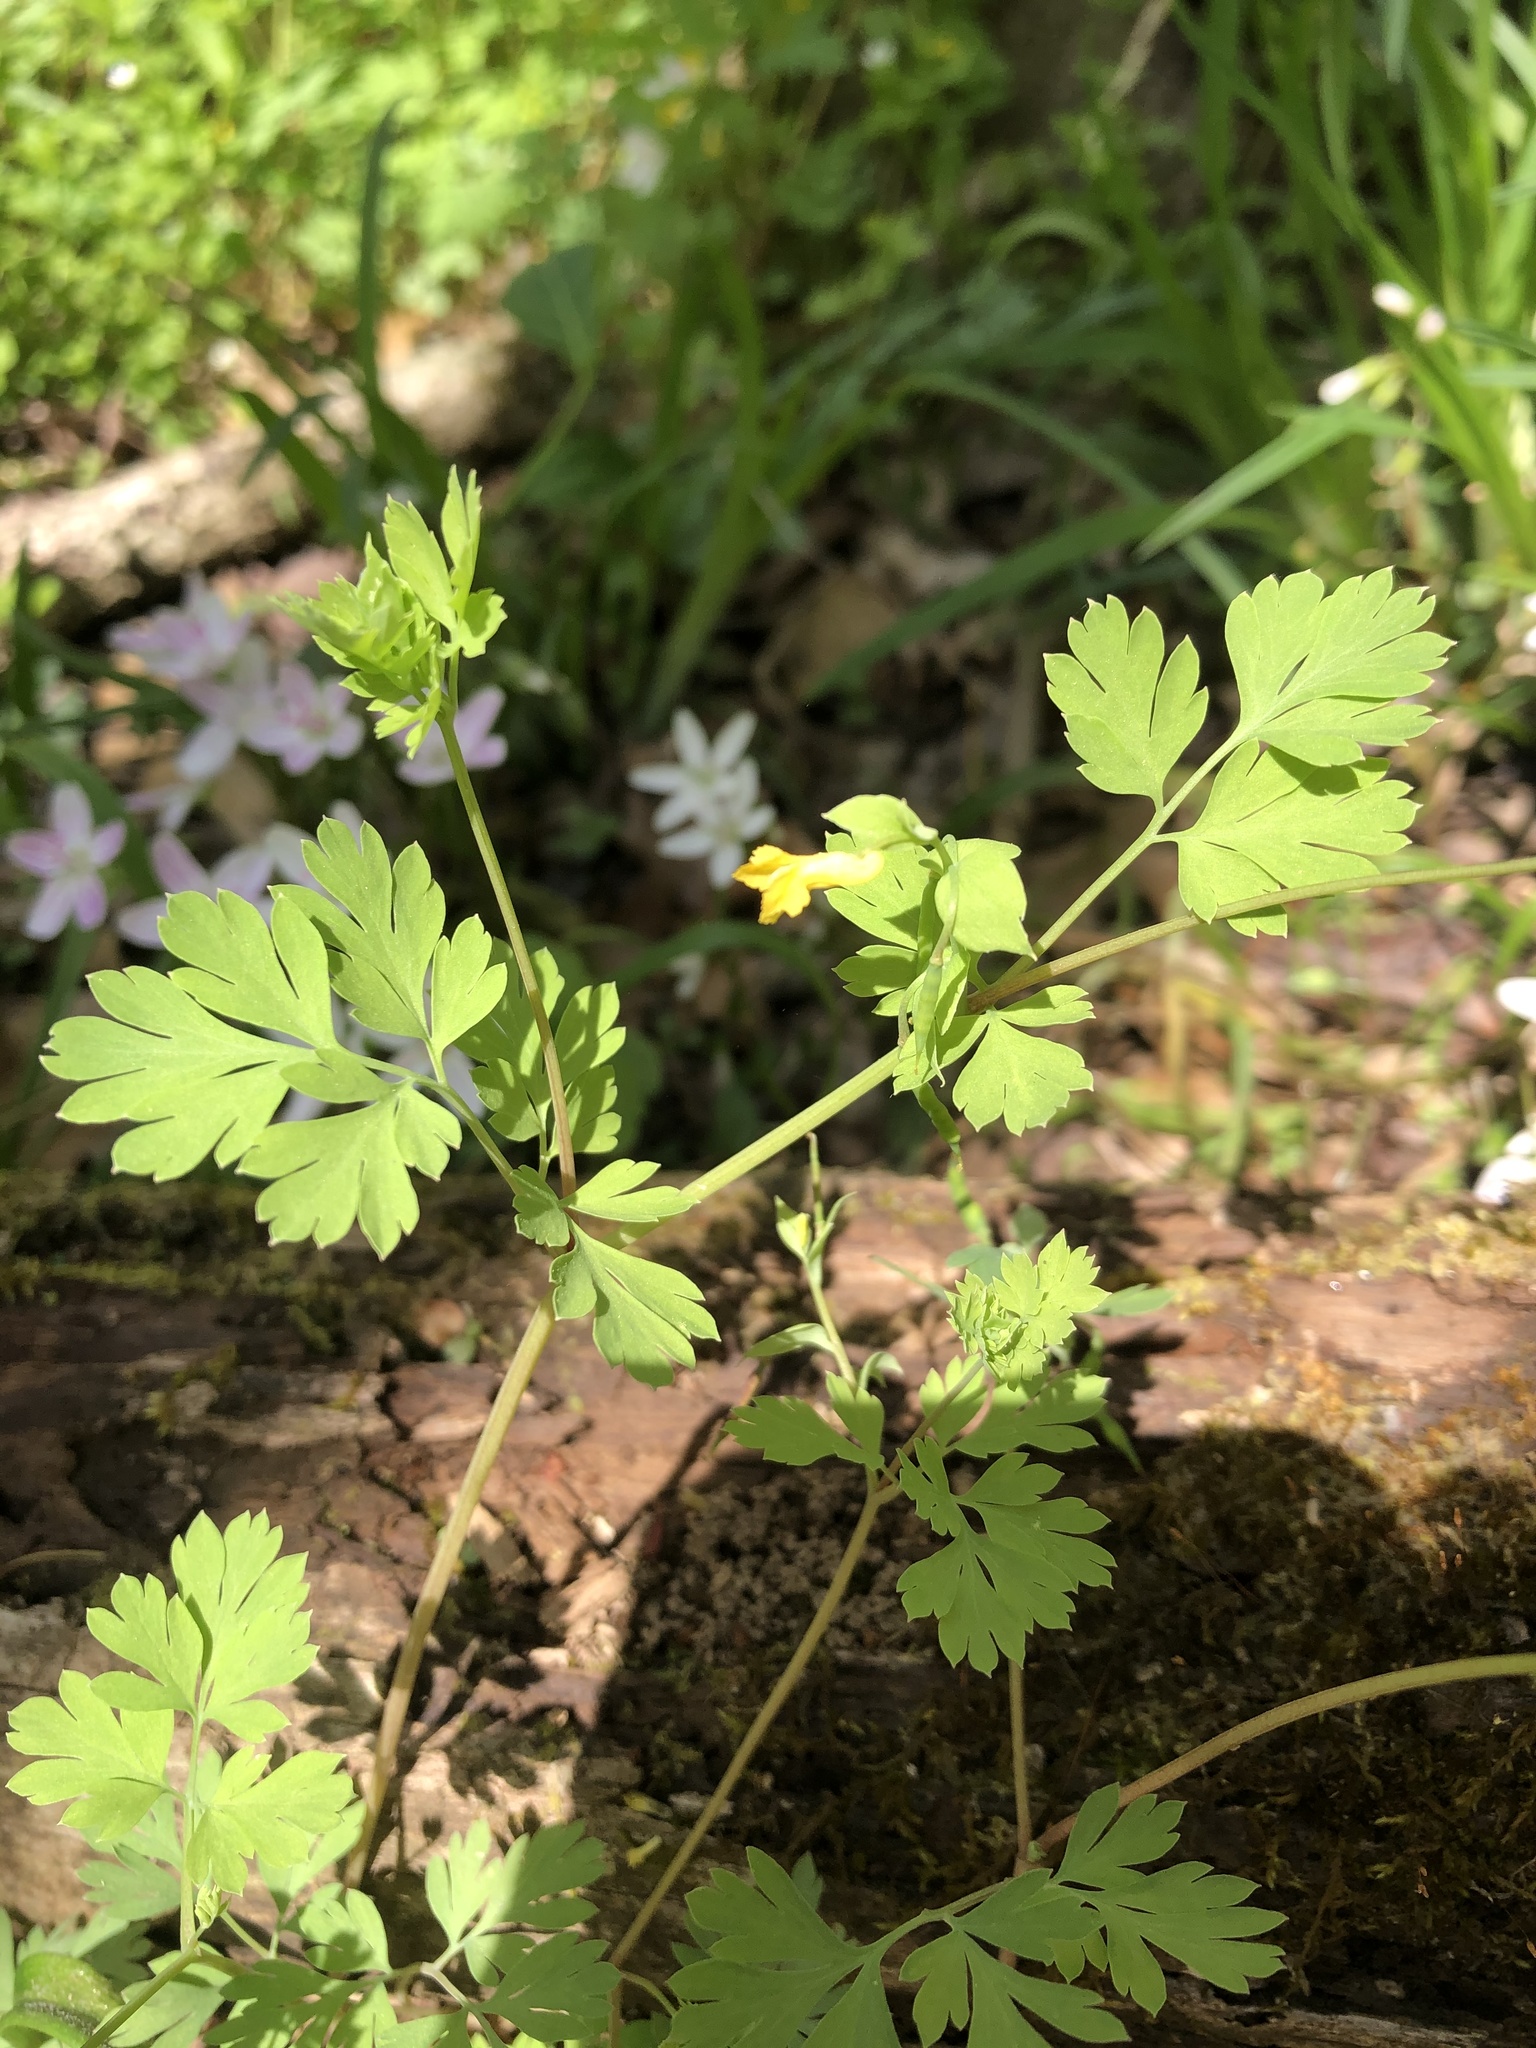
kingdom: Plantae
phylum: Tracheophyta
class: Magnoliopsida
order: Ranunculales
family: Papaveraceae
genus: Corydalis
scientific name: Corydalis flavula
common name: Yellow corydalis
